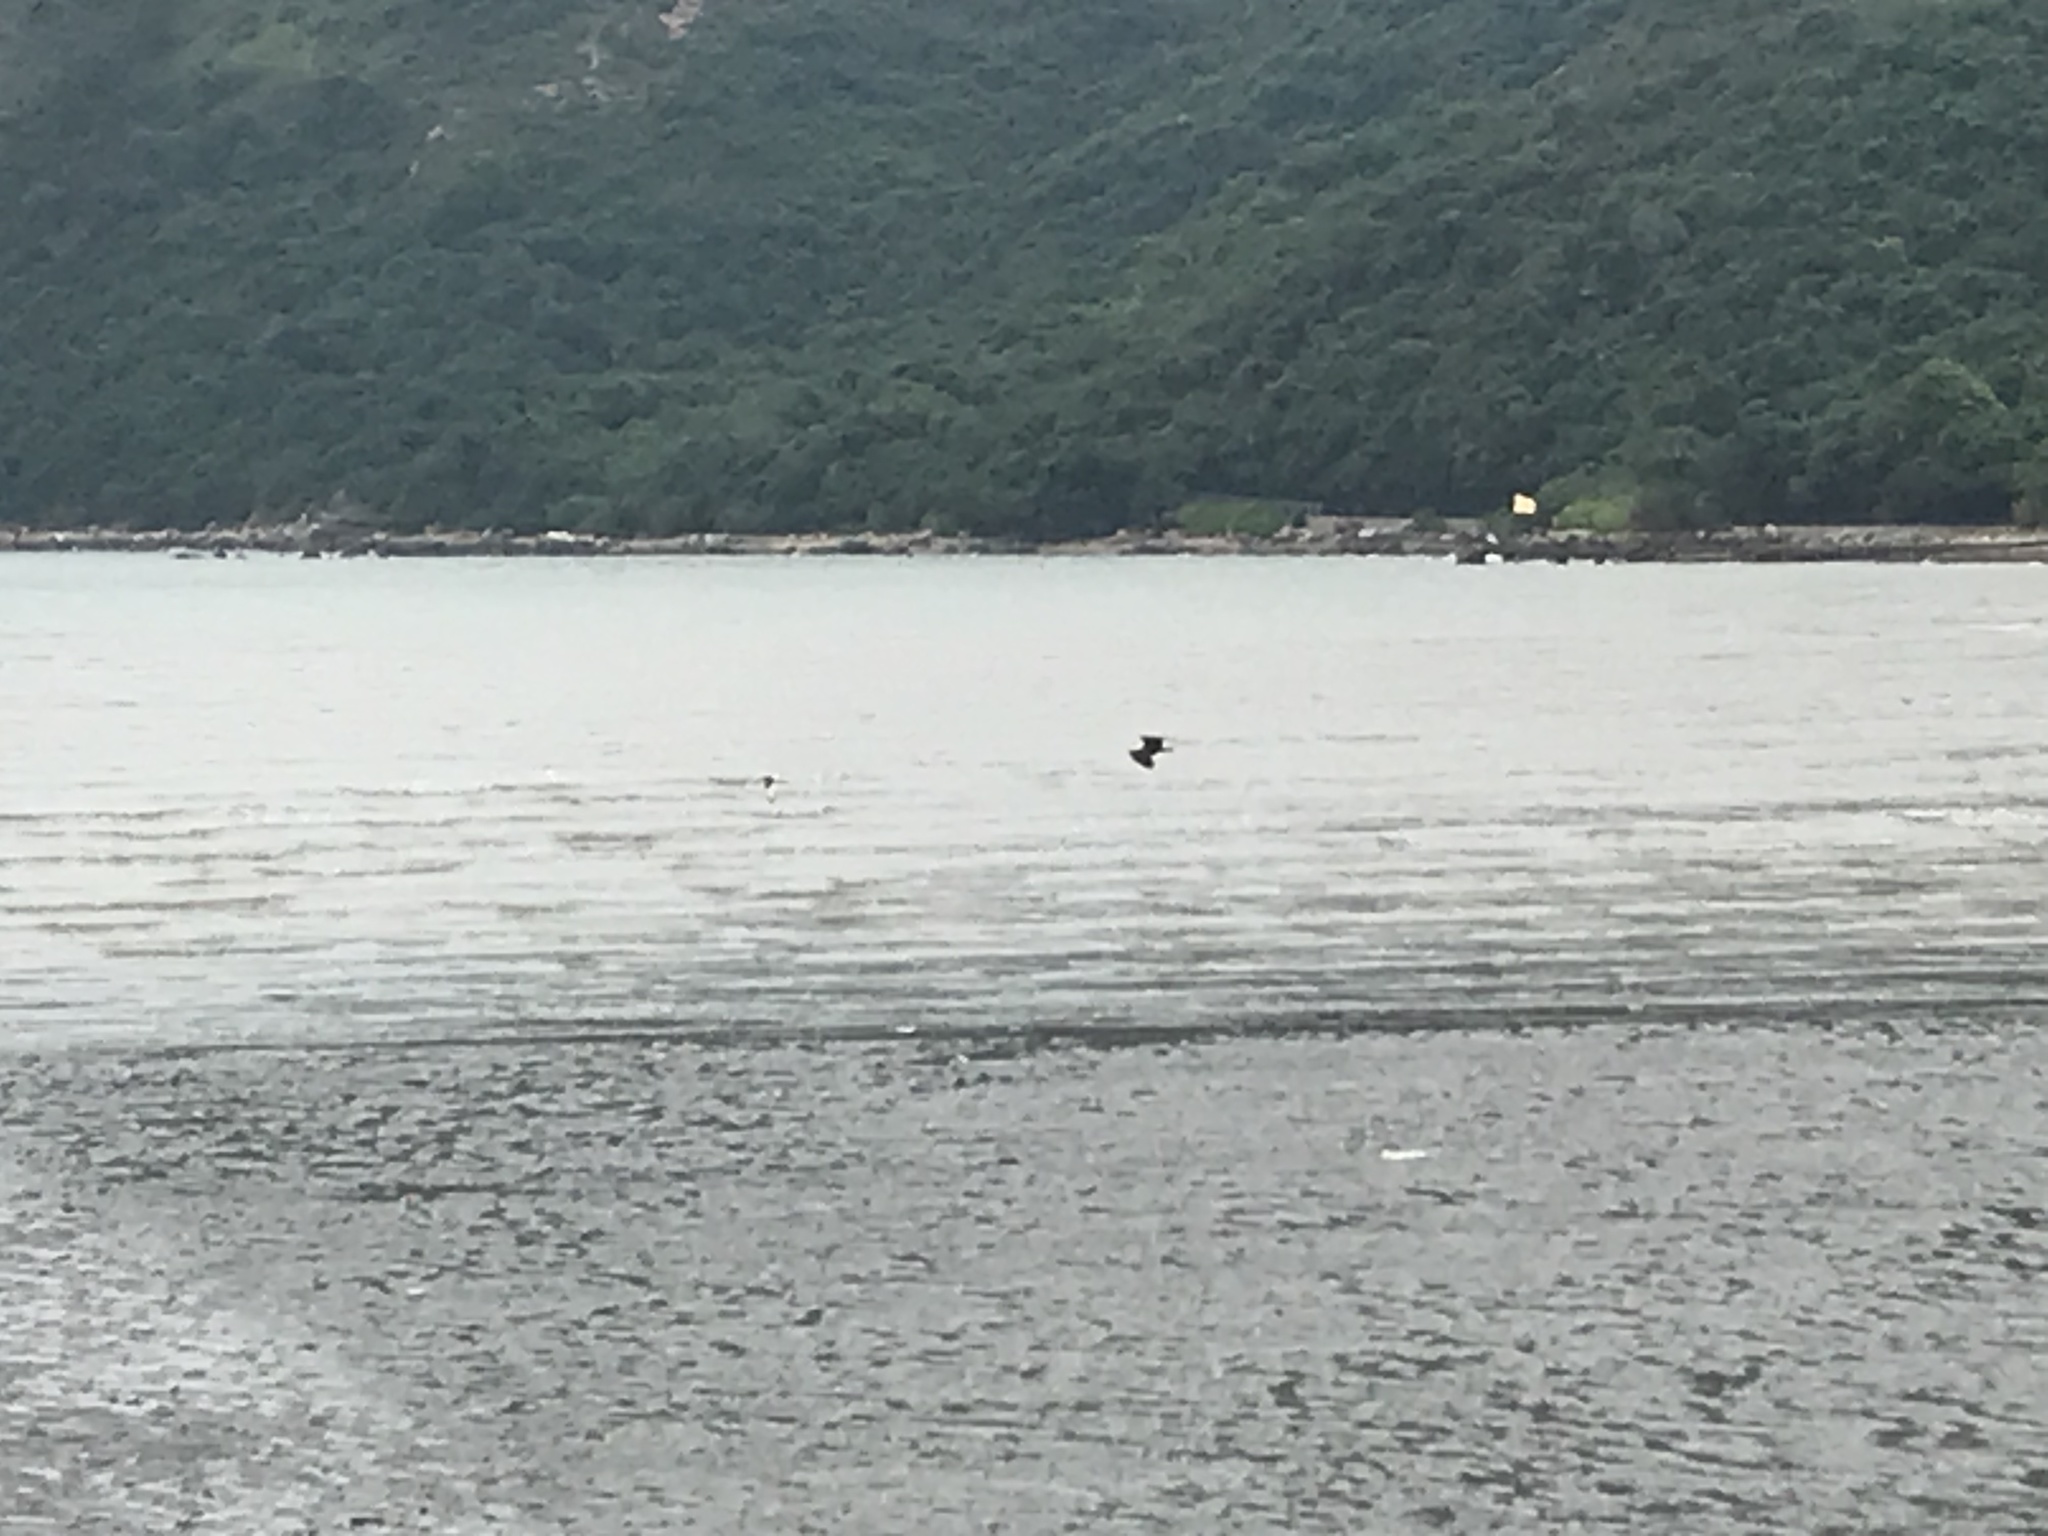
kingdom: Animalia
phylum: Chordata
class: Aves
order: Accipitriformes
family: Accipitridae
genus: Milvus
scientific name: Milvus migrans
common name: Black kite
